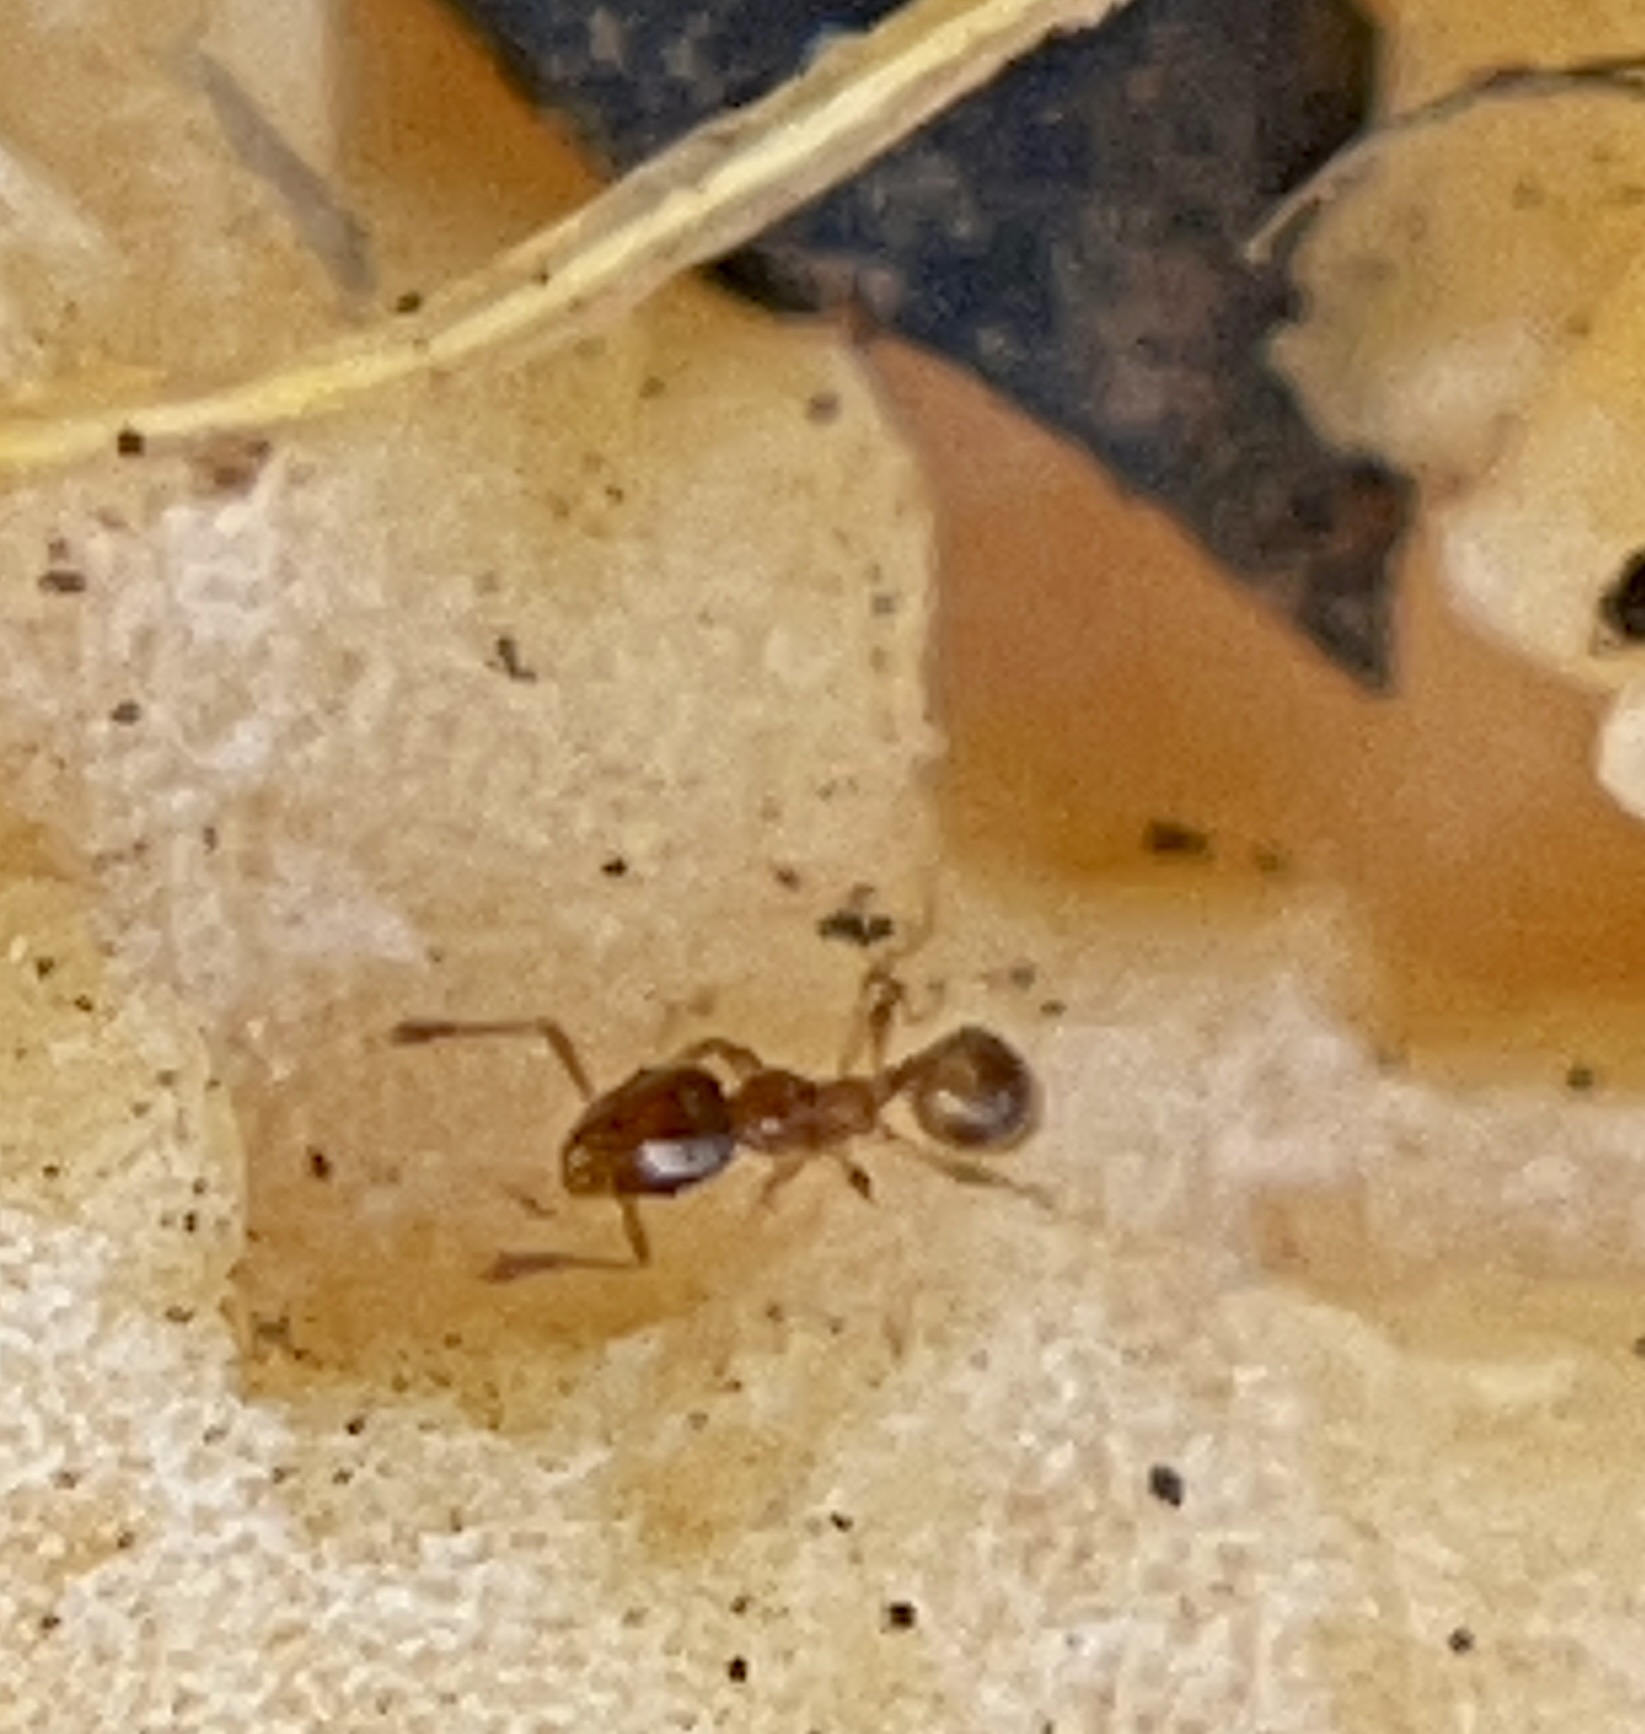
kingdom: Animalia
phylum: Arthropoda
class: Insecta
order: Hymenoptera
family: Formicidae
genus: Pheidole
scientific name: Pheidole tysoni
